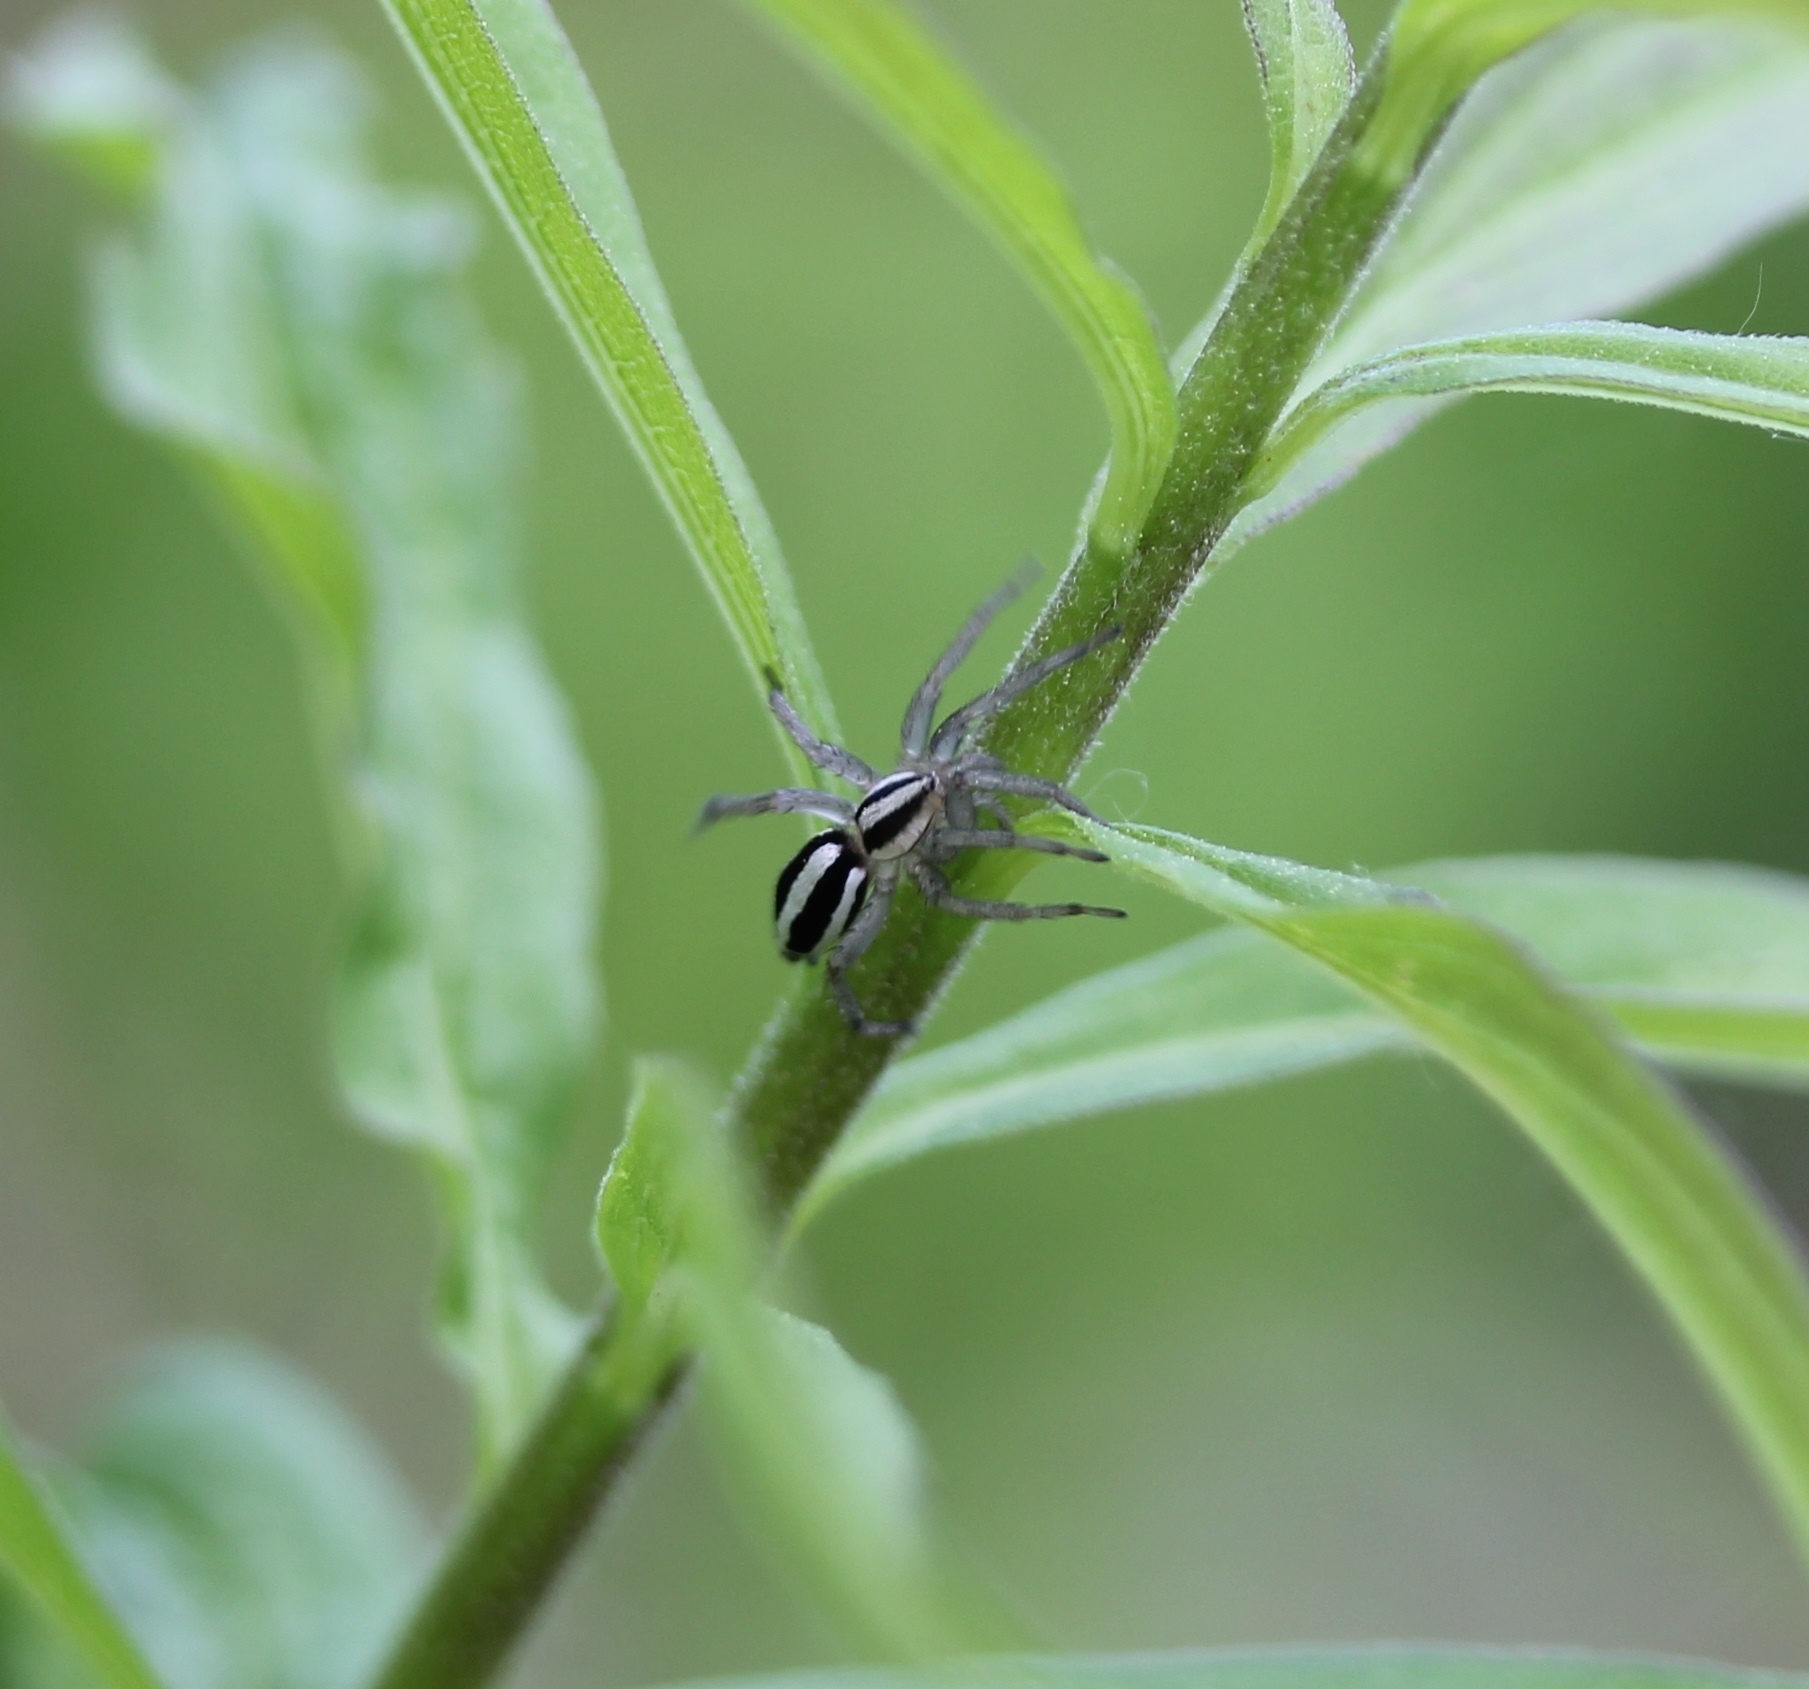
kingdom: Animalia
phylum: Arthropoda
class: Arachnida
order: Araneae
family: Gnaphosidae
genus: Cesonia
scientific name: Cesonia bilineata
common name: Two-lined stealthy ground spider
